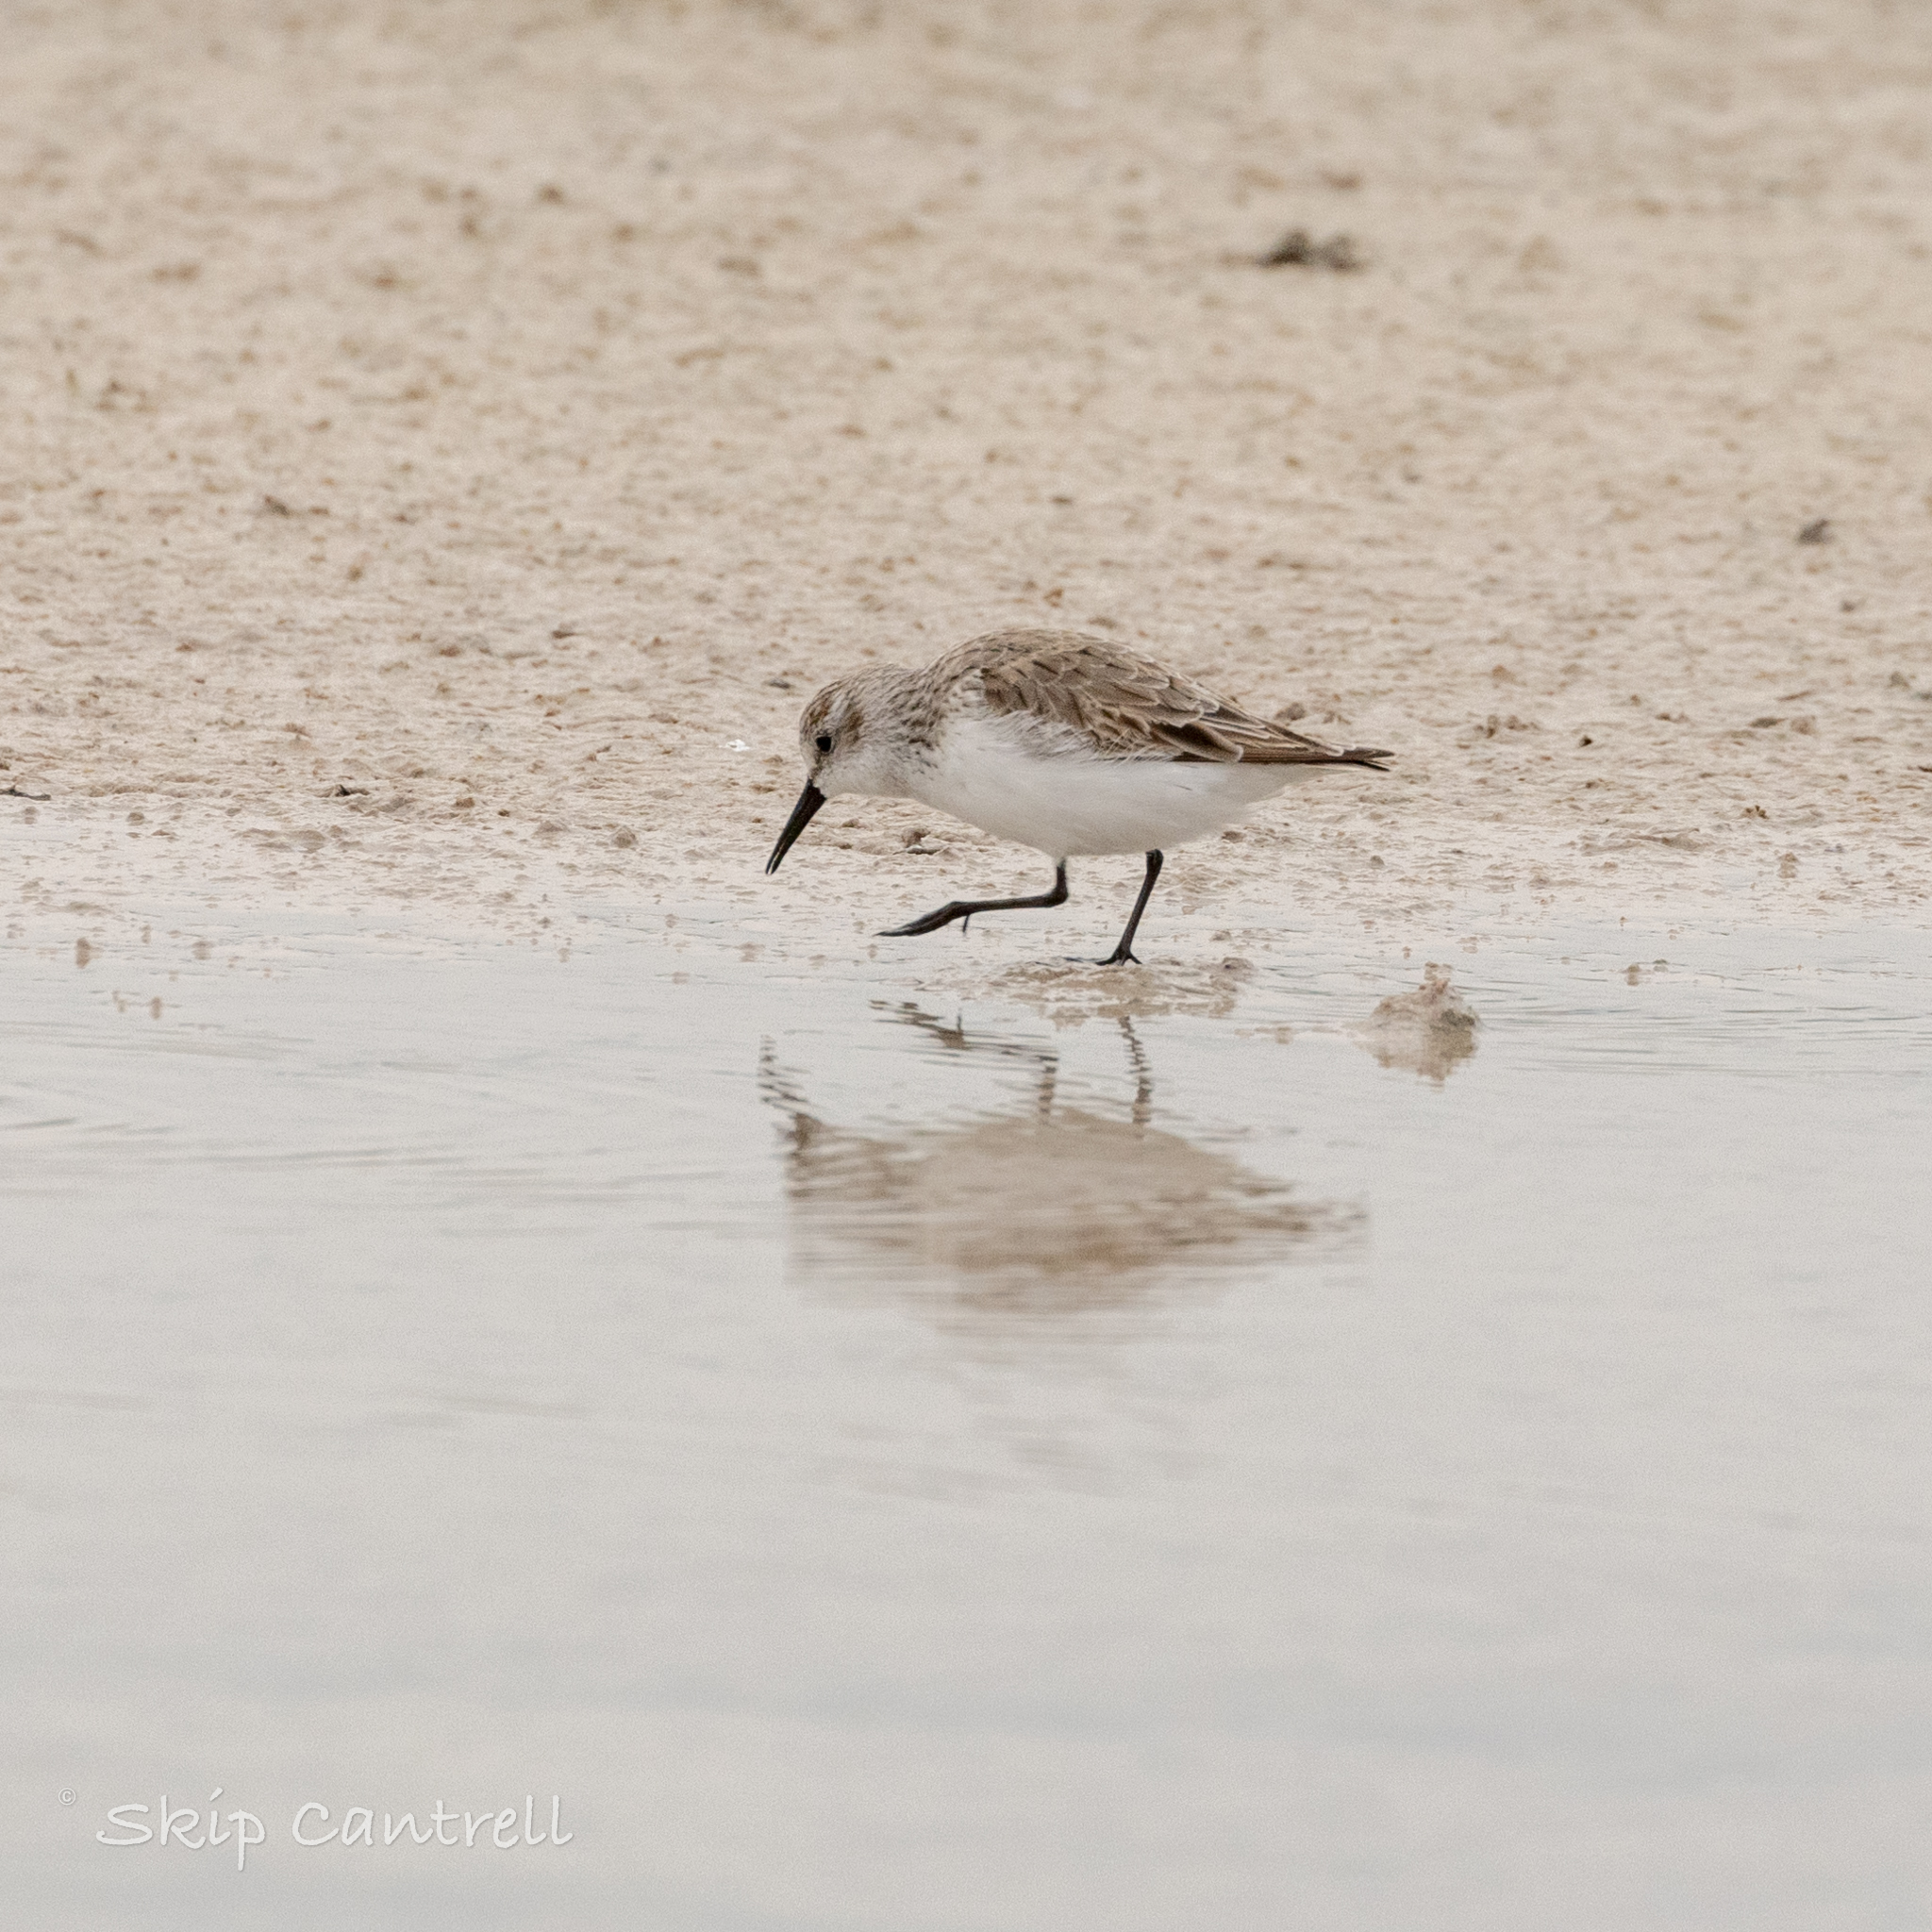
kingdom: Animalia
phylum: Chordata
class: Aves
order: Charadriiformes
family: Scolopacidae
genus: Calidris
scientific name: Calidris mauri
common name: Western sandpiper
